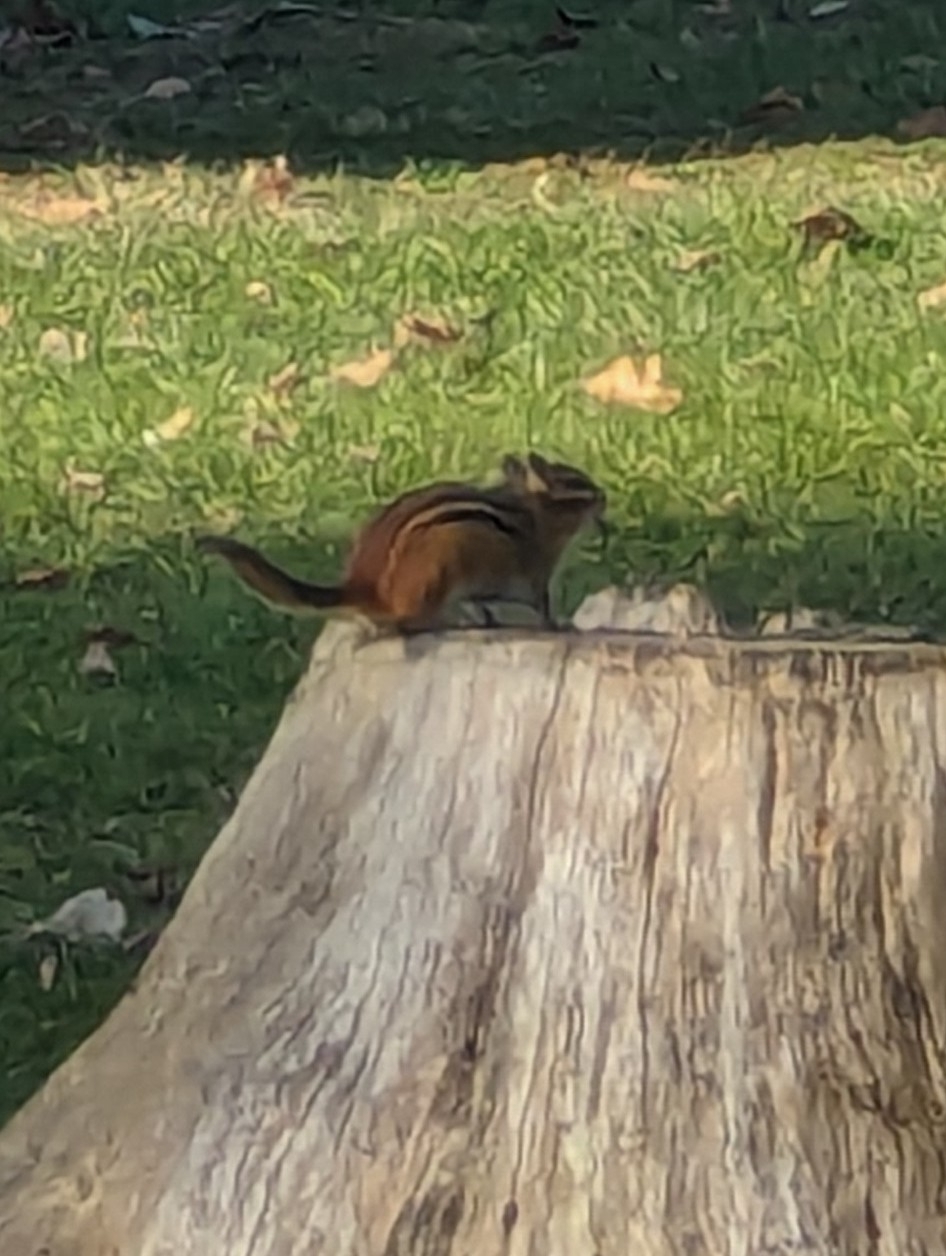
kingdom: Animalia
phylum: Chordata
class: Mammalia
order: Rodentia
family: Sciuridae
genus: Tamias
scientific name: Tamias striatus
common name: Eastern chipmunk
